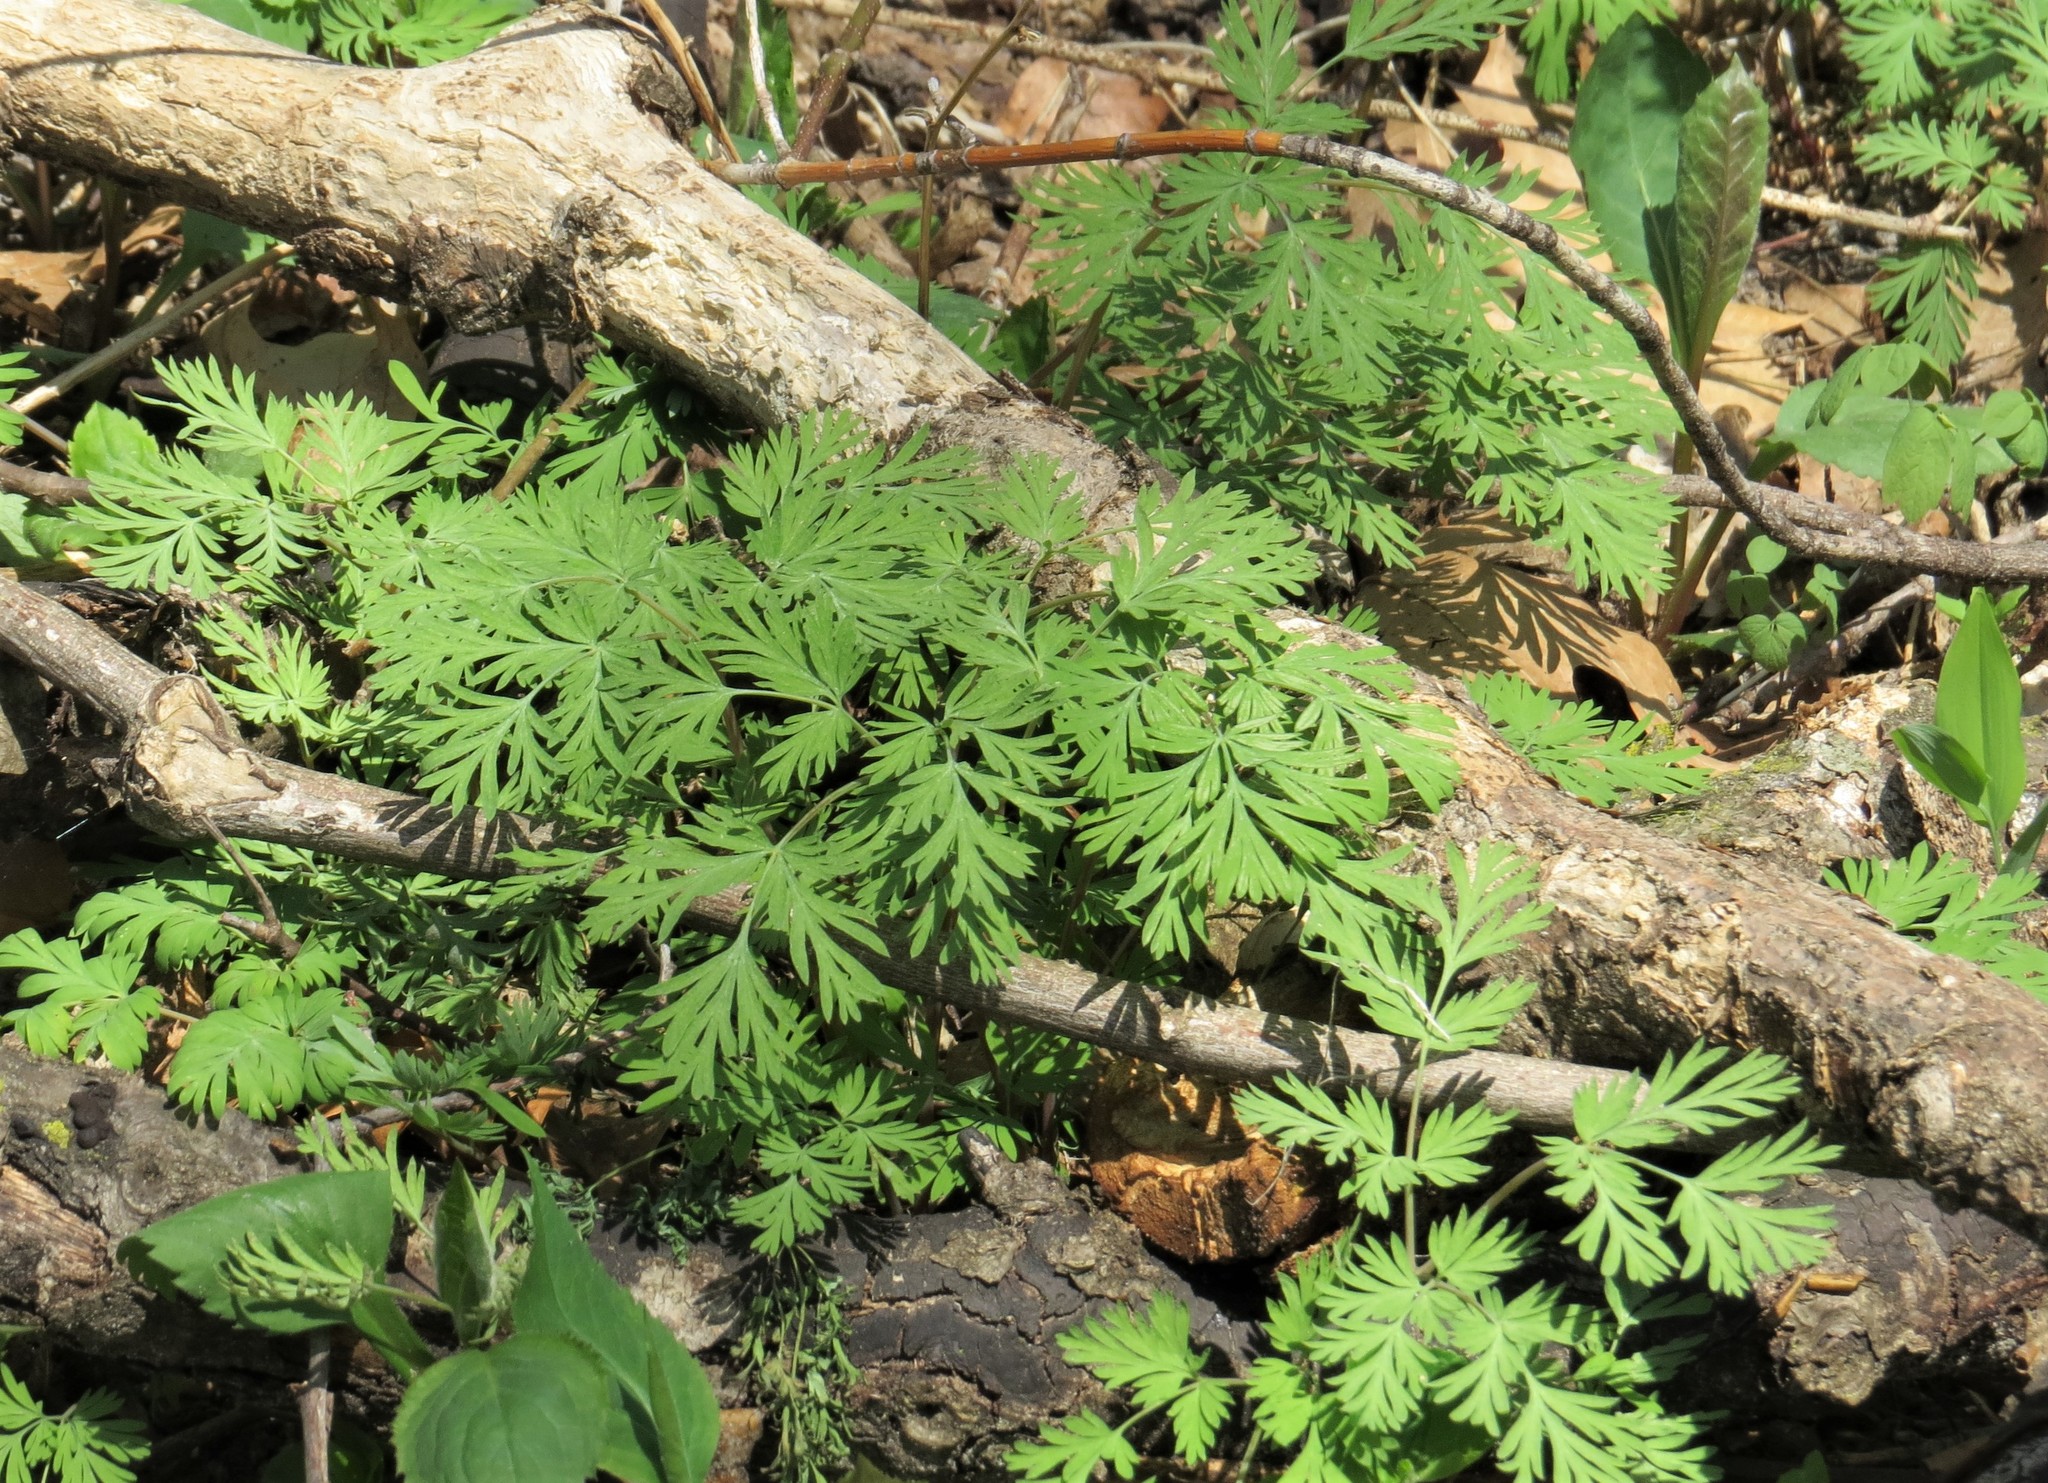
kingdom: Plantae
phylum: Tracheophyta
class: Magnoliopsida
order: Ranunculales
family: Papaveraceae
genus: Dicentra
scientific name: Dicentra cucullaria
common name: Dutchman's breeches
